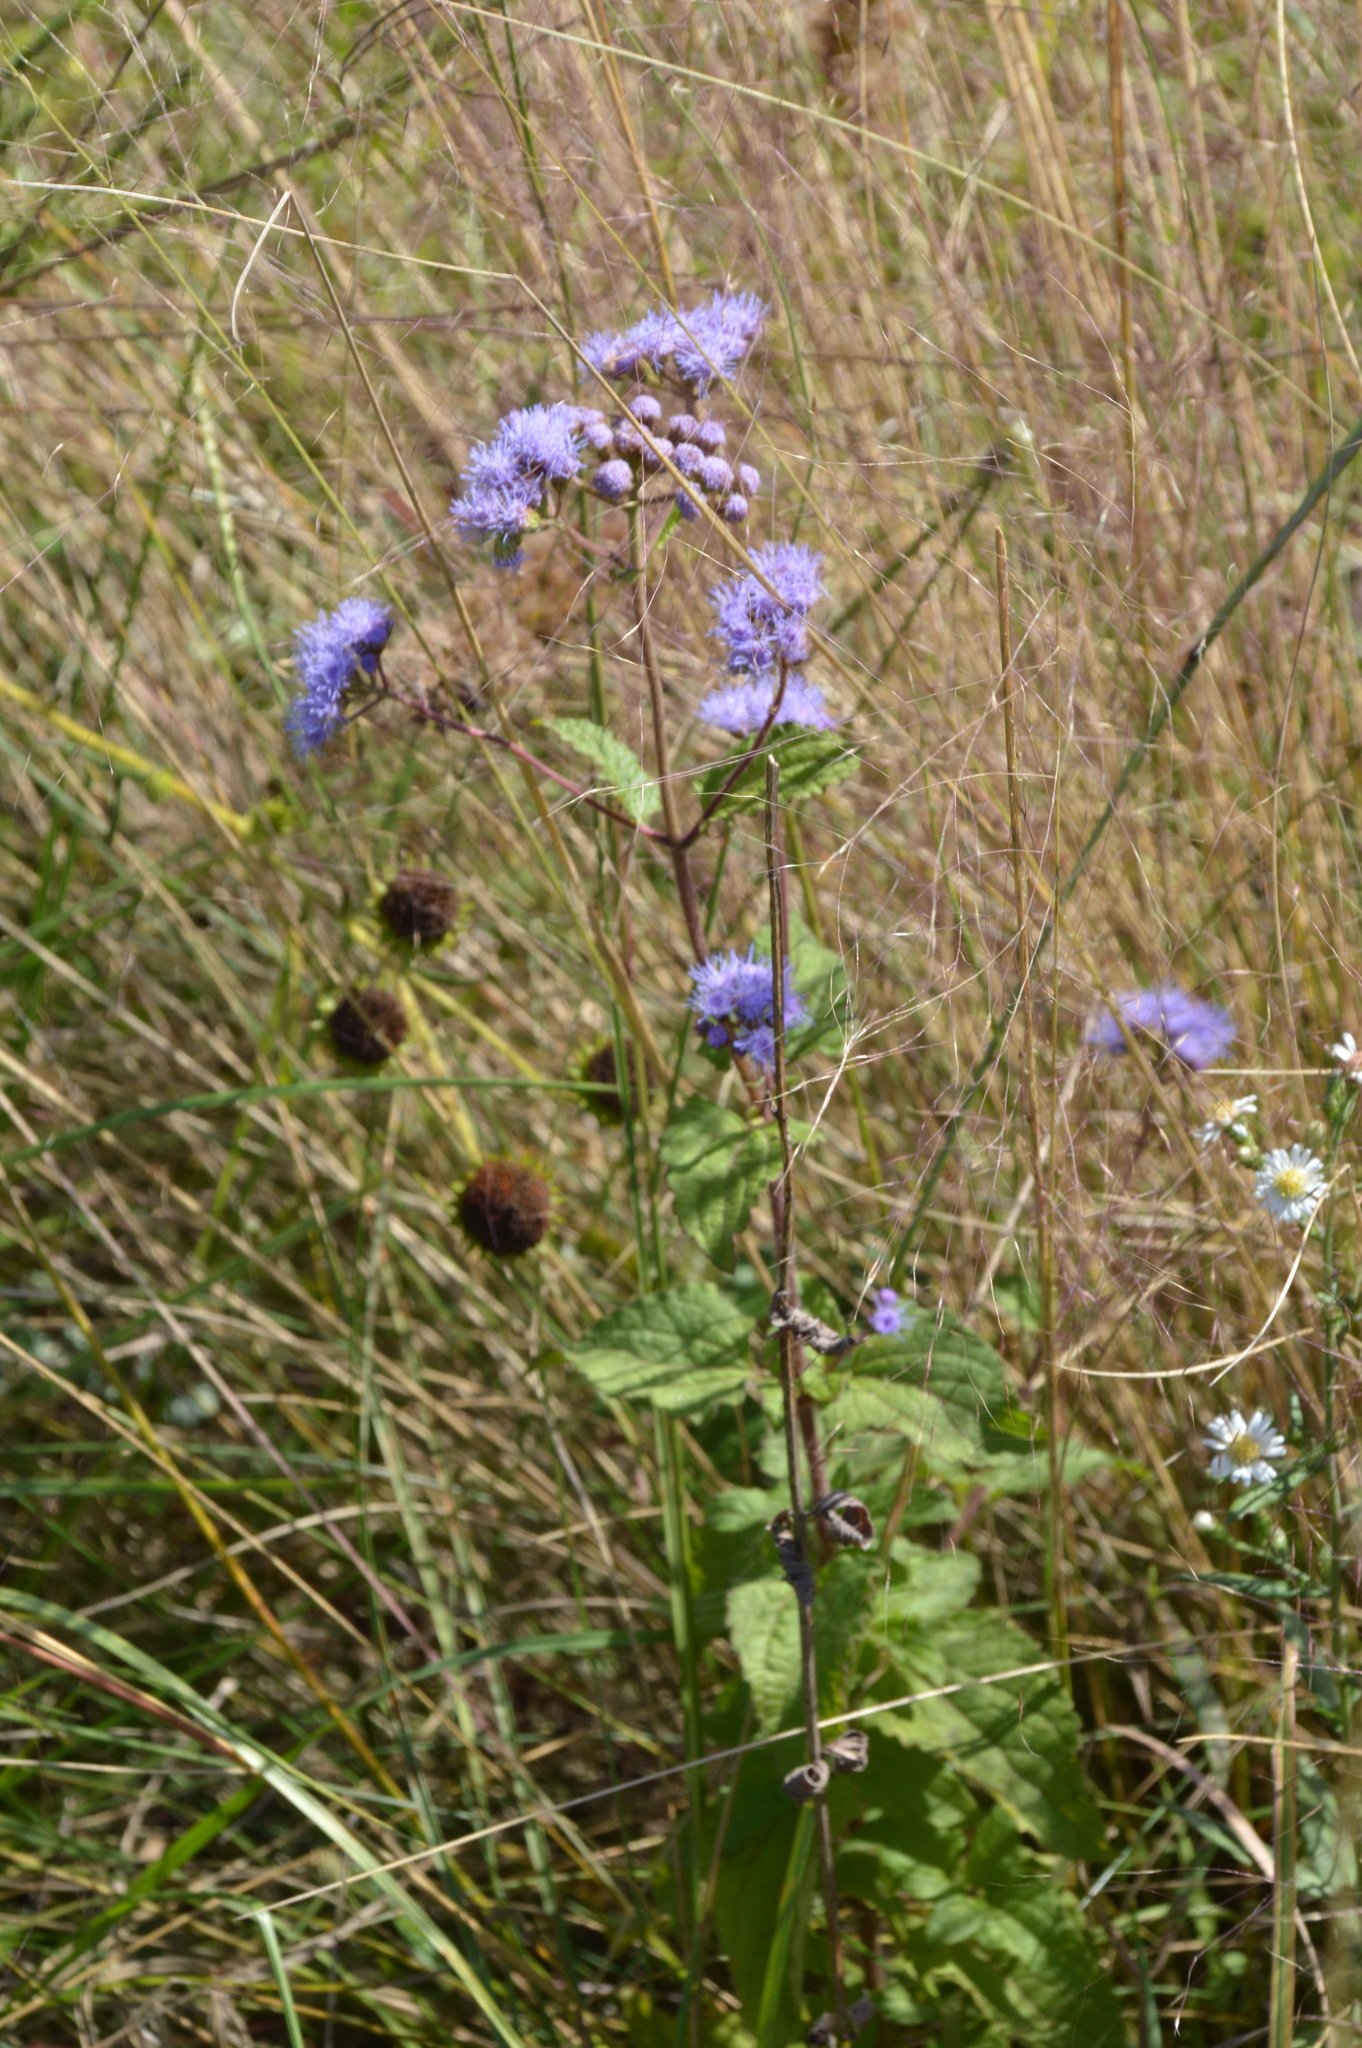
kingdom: Plantae
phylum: Tracheophyta
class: Magnoliopsida
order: Asterales
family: Asteraceae
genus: Conoclinium
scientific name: Conoclinium coelestinum
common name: Blue mistflower
